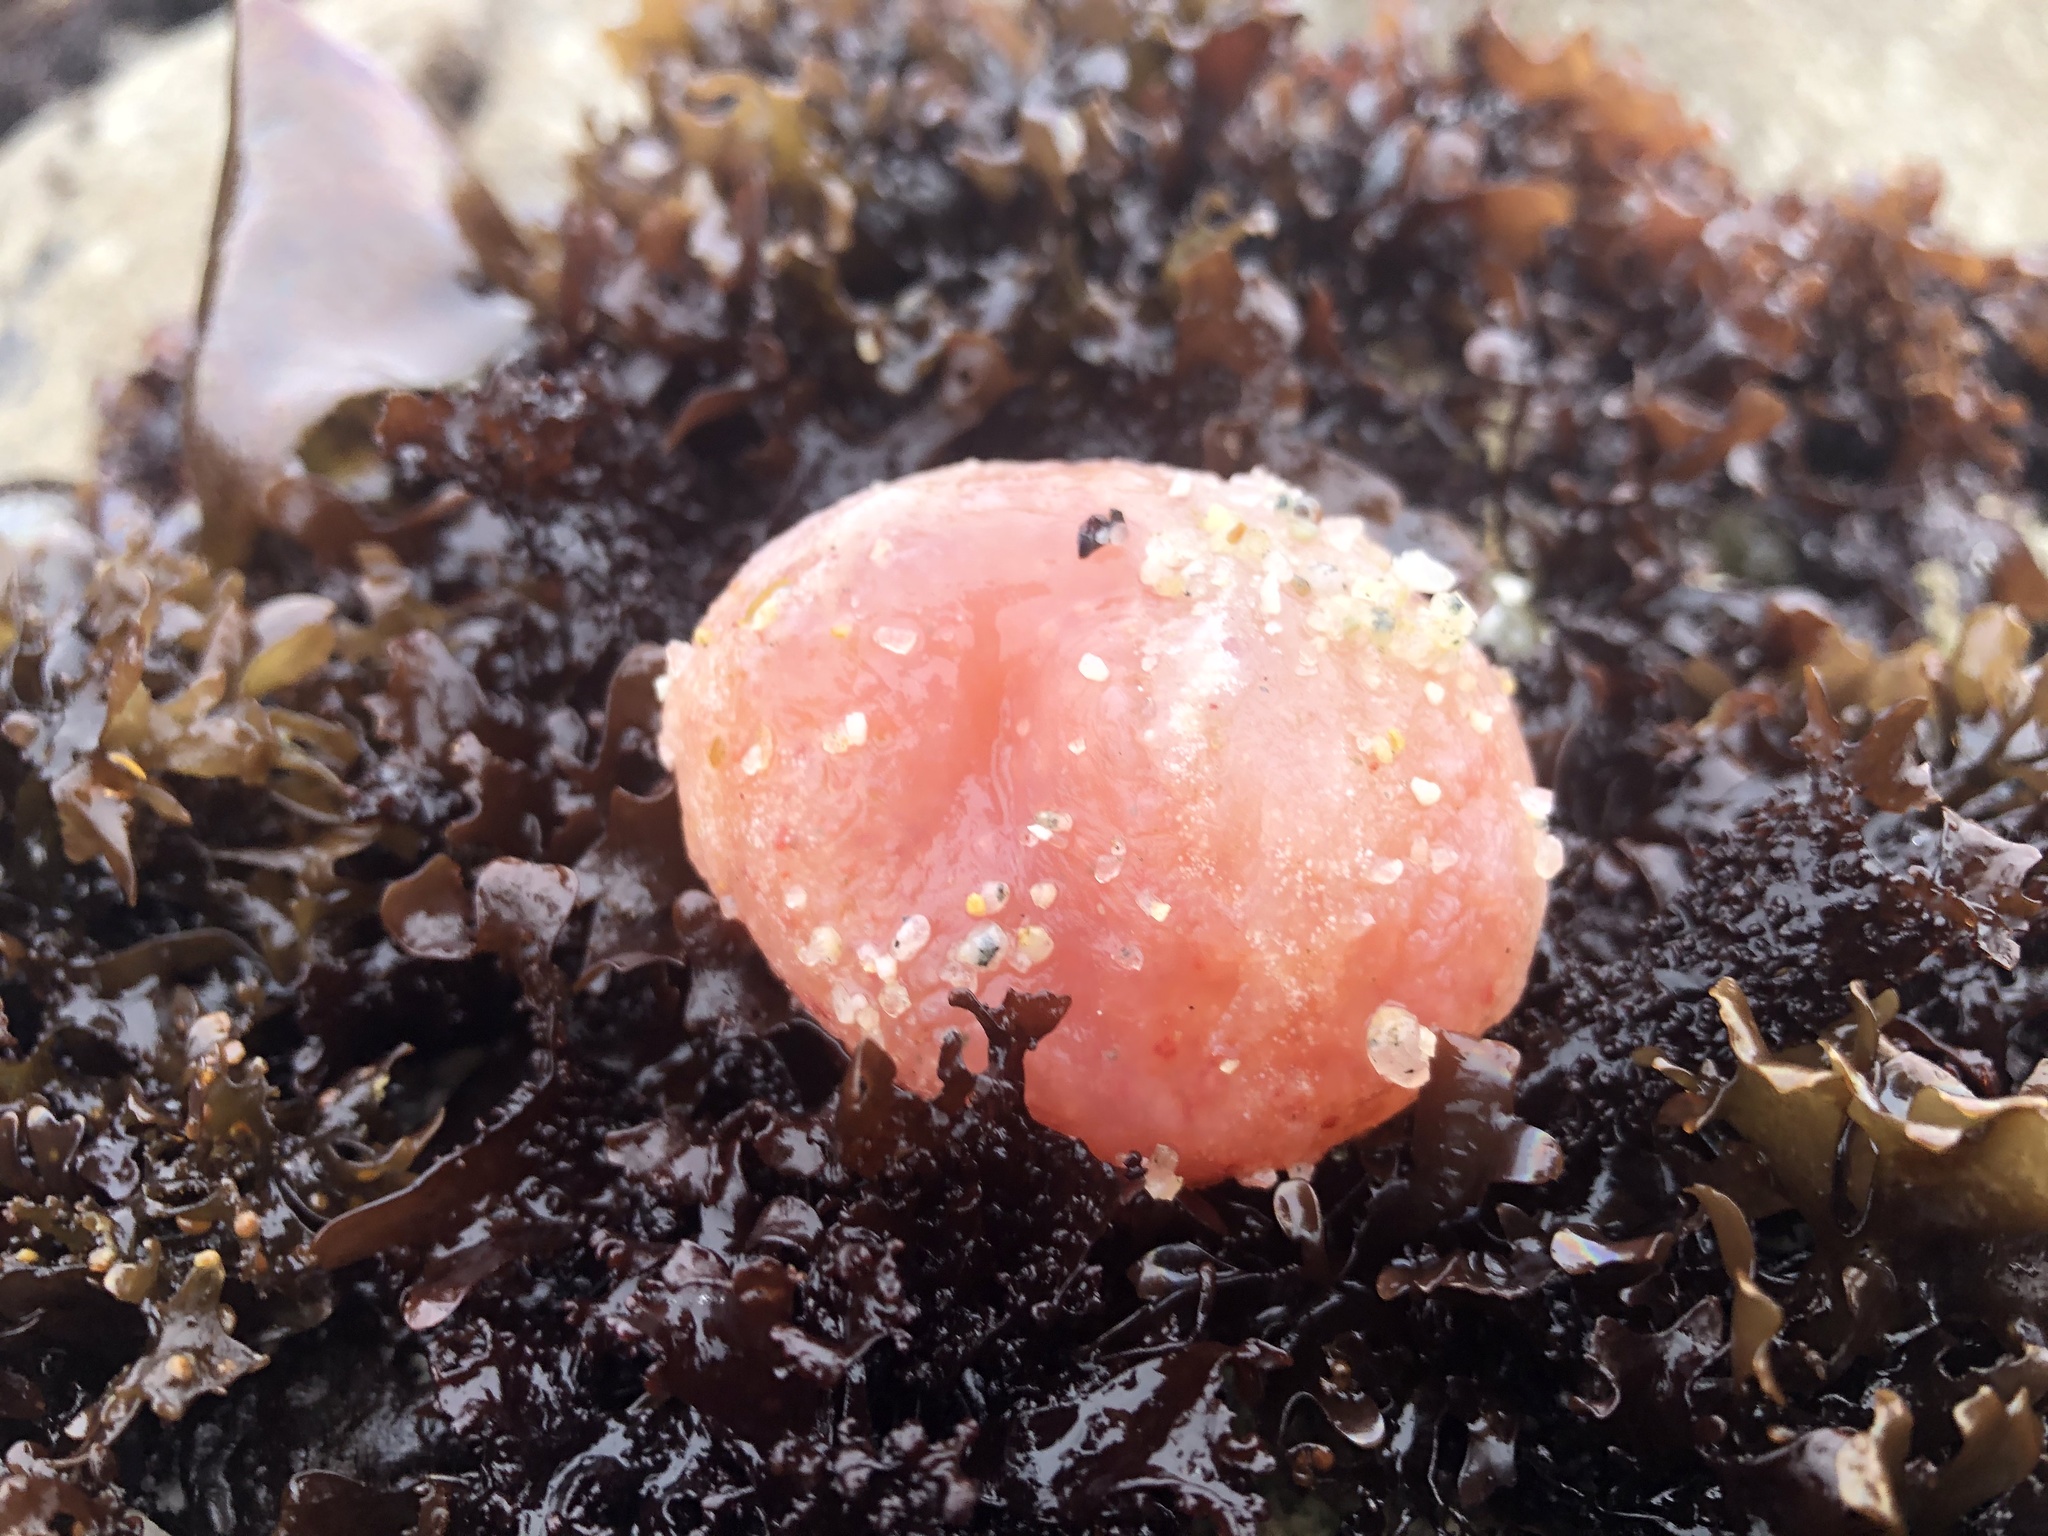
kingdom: Animalia
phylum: Chordata
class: Ascidiacea
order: Aplousobranchia
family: Polyclinidae
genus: Aplidium
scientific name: Aplidium californicum
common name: Sea pork
